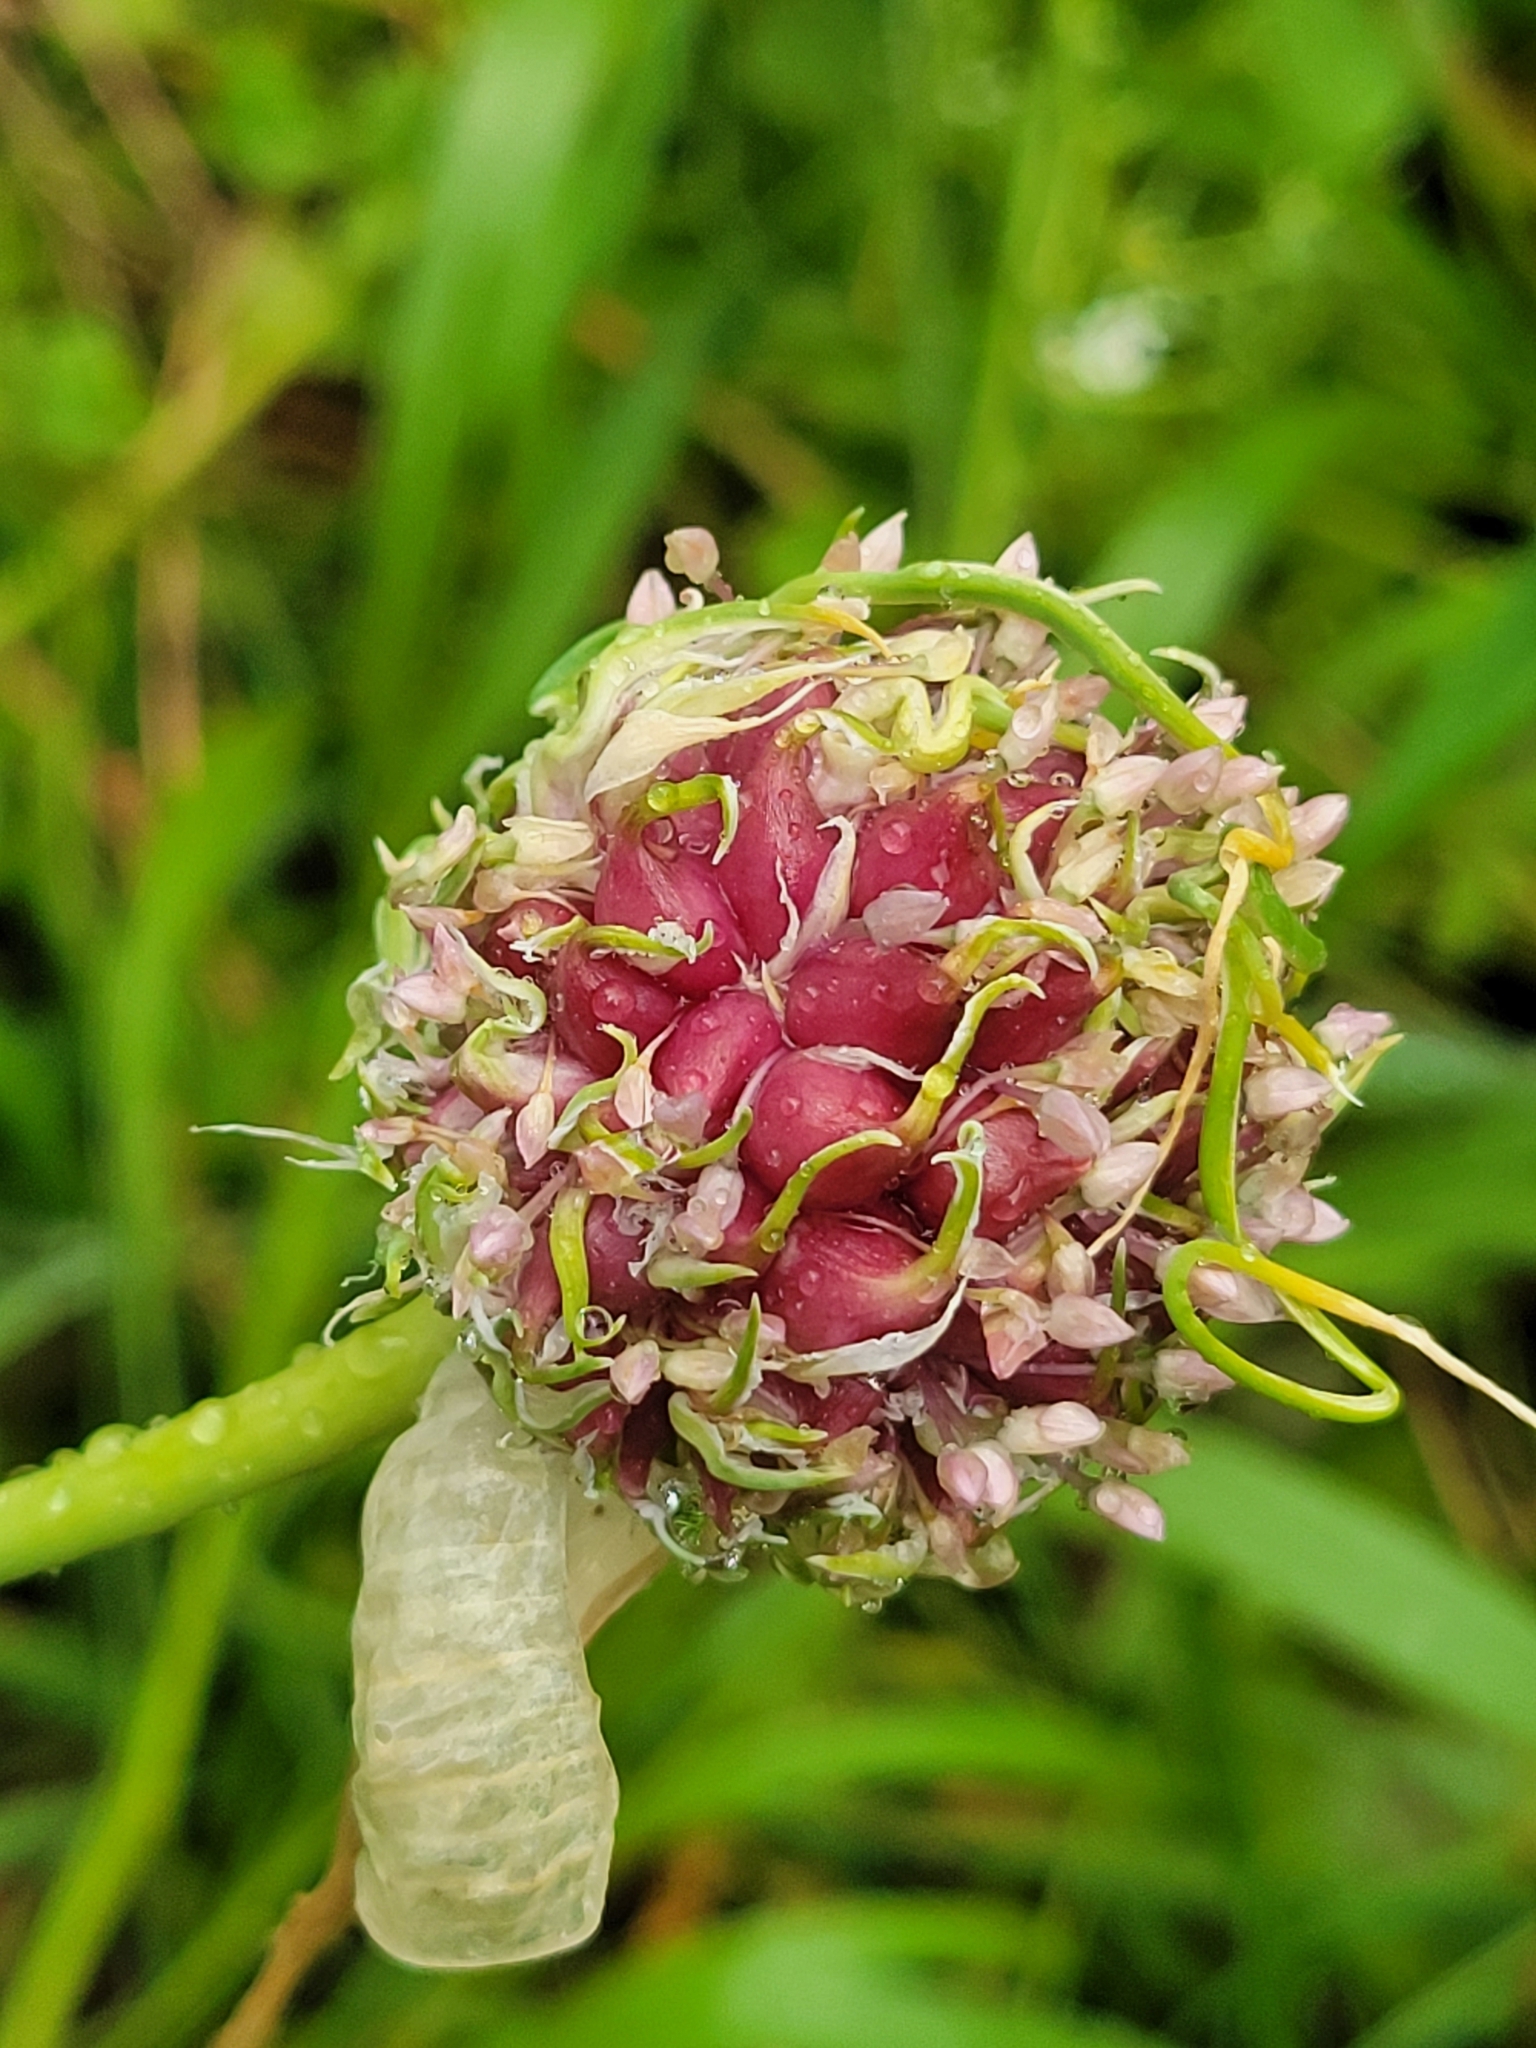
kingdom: Plantae
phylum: Tracheophyta
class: Liliopsida
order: Asparagales
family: Amaryllidaceae
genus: Allium
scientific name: Allium sativum
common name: Garlic
